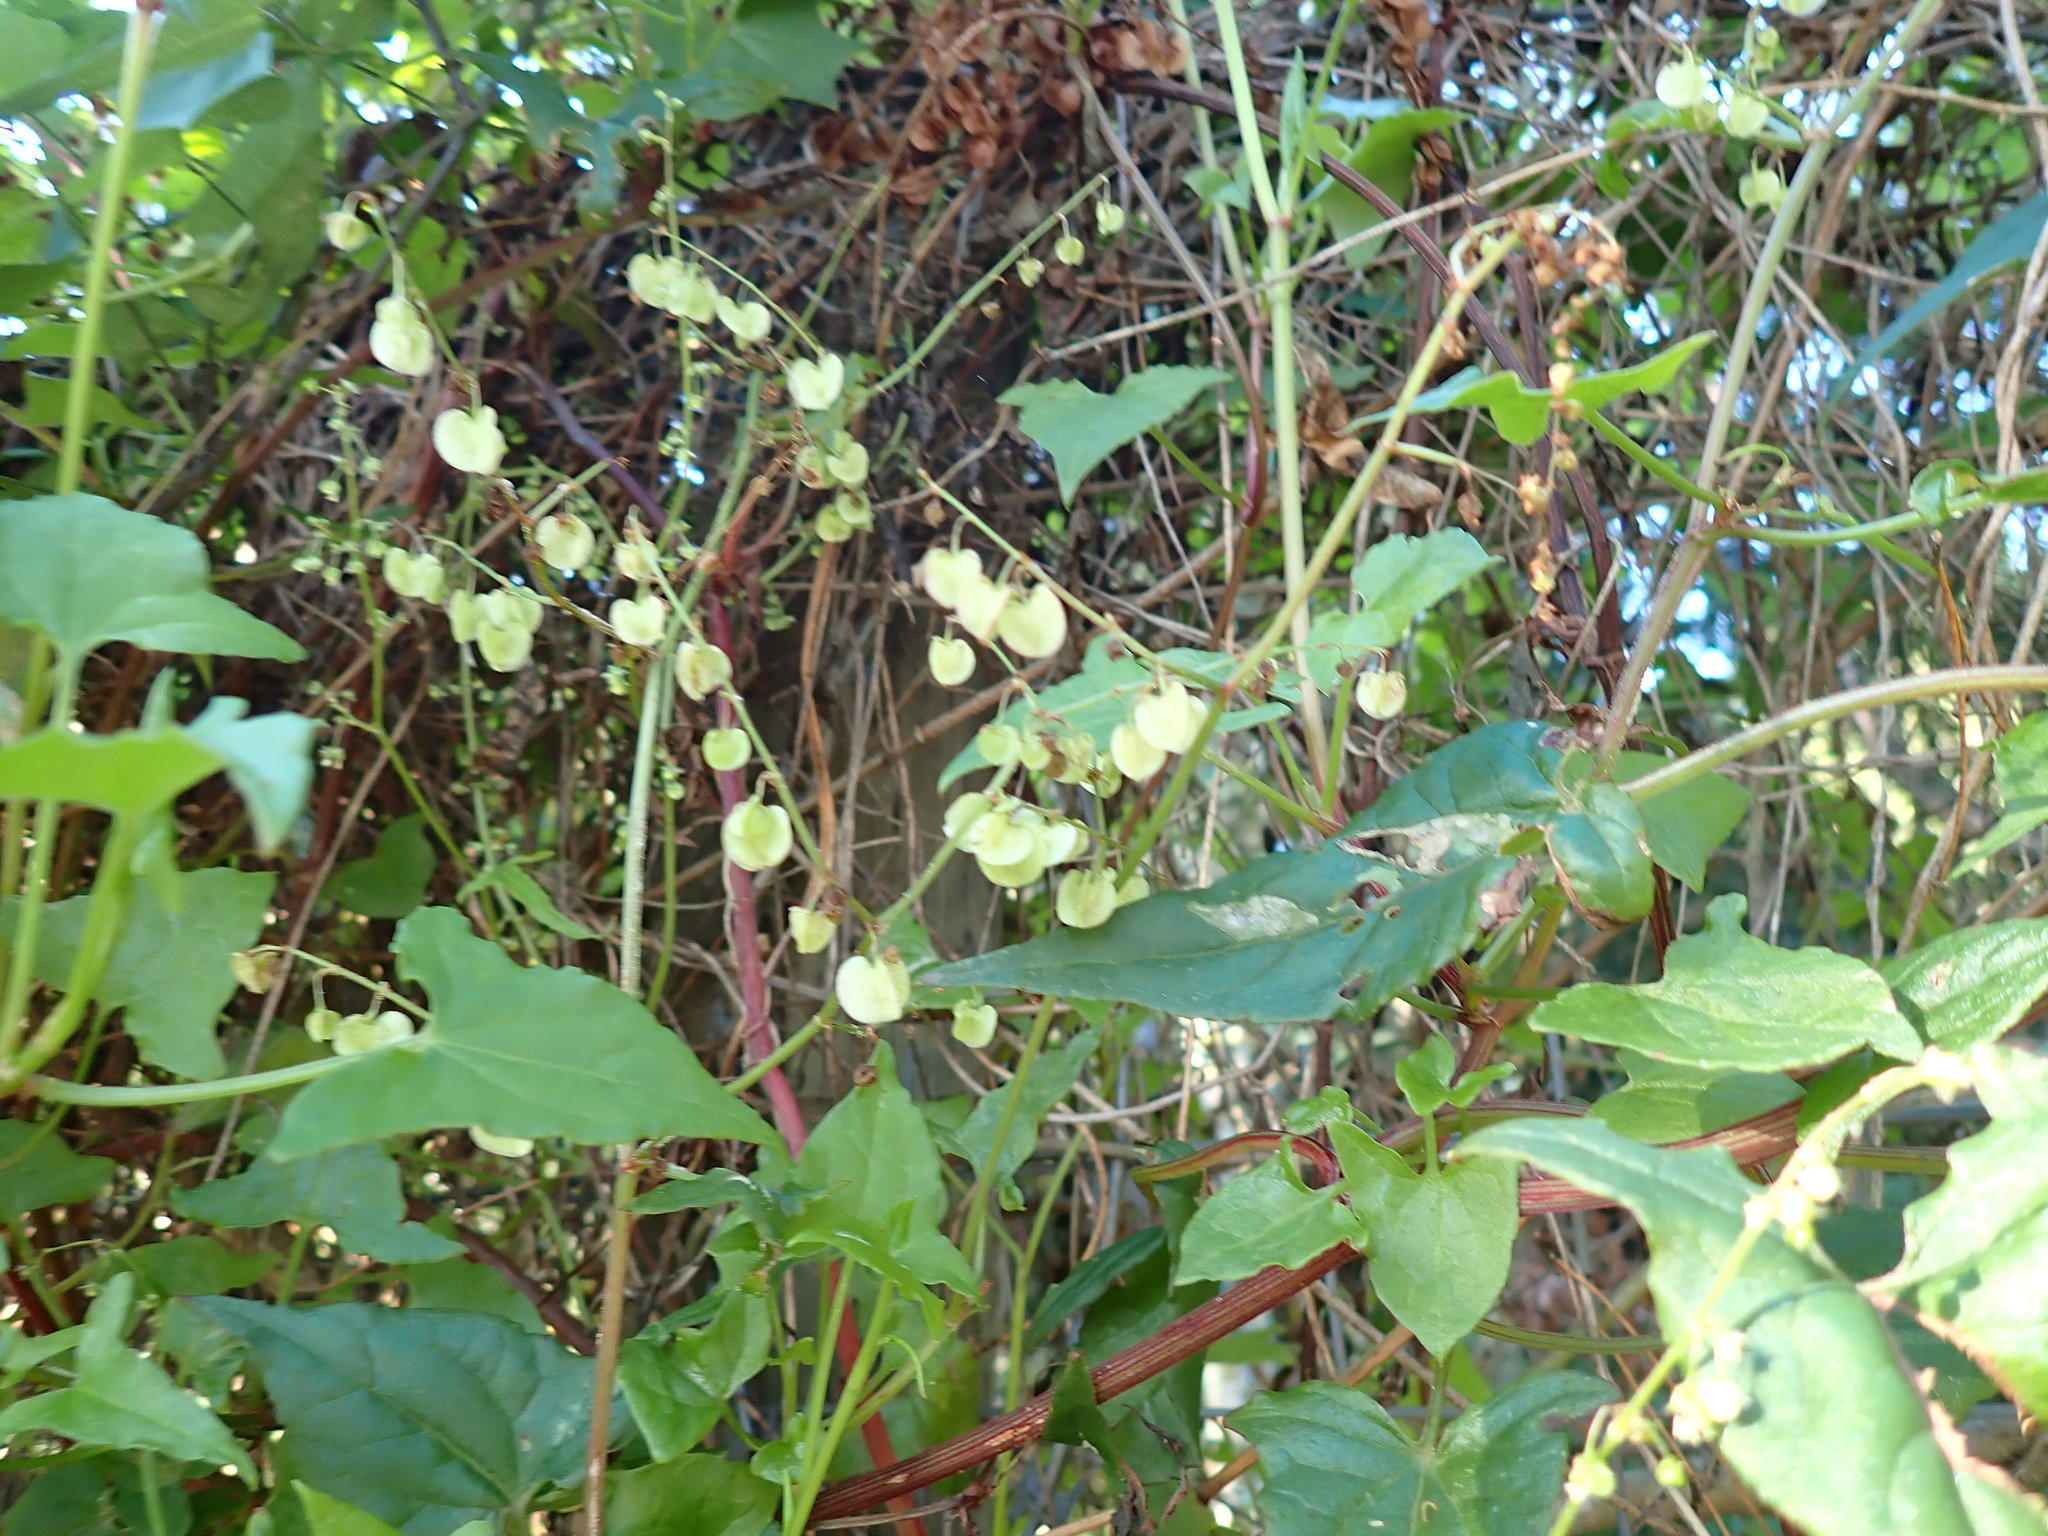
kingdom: Plantae
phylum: Tracheophyta
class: Magnoliopsida
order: Caryophyllales
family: Polygonaceae
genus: Rumex
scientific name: Rumex sagittatus
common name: Climbing dock
